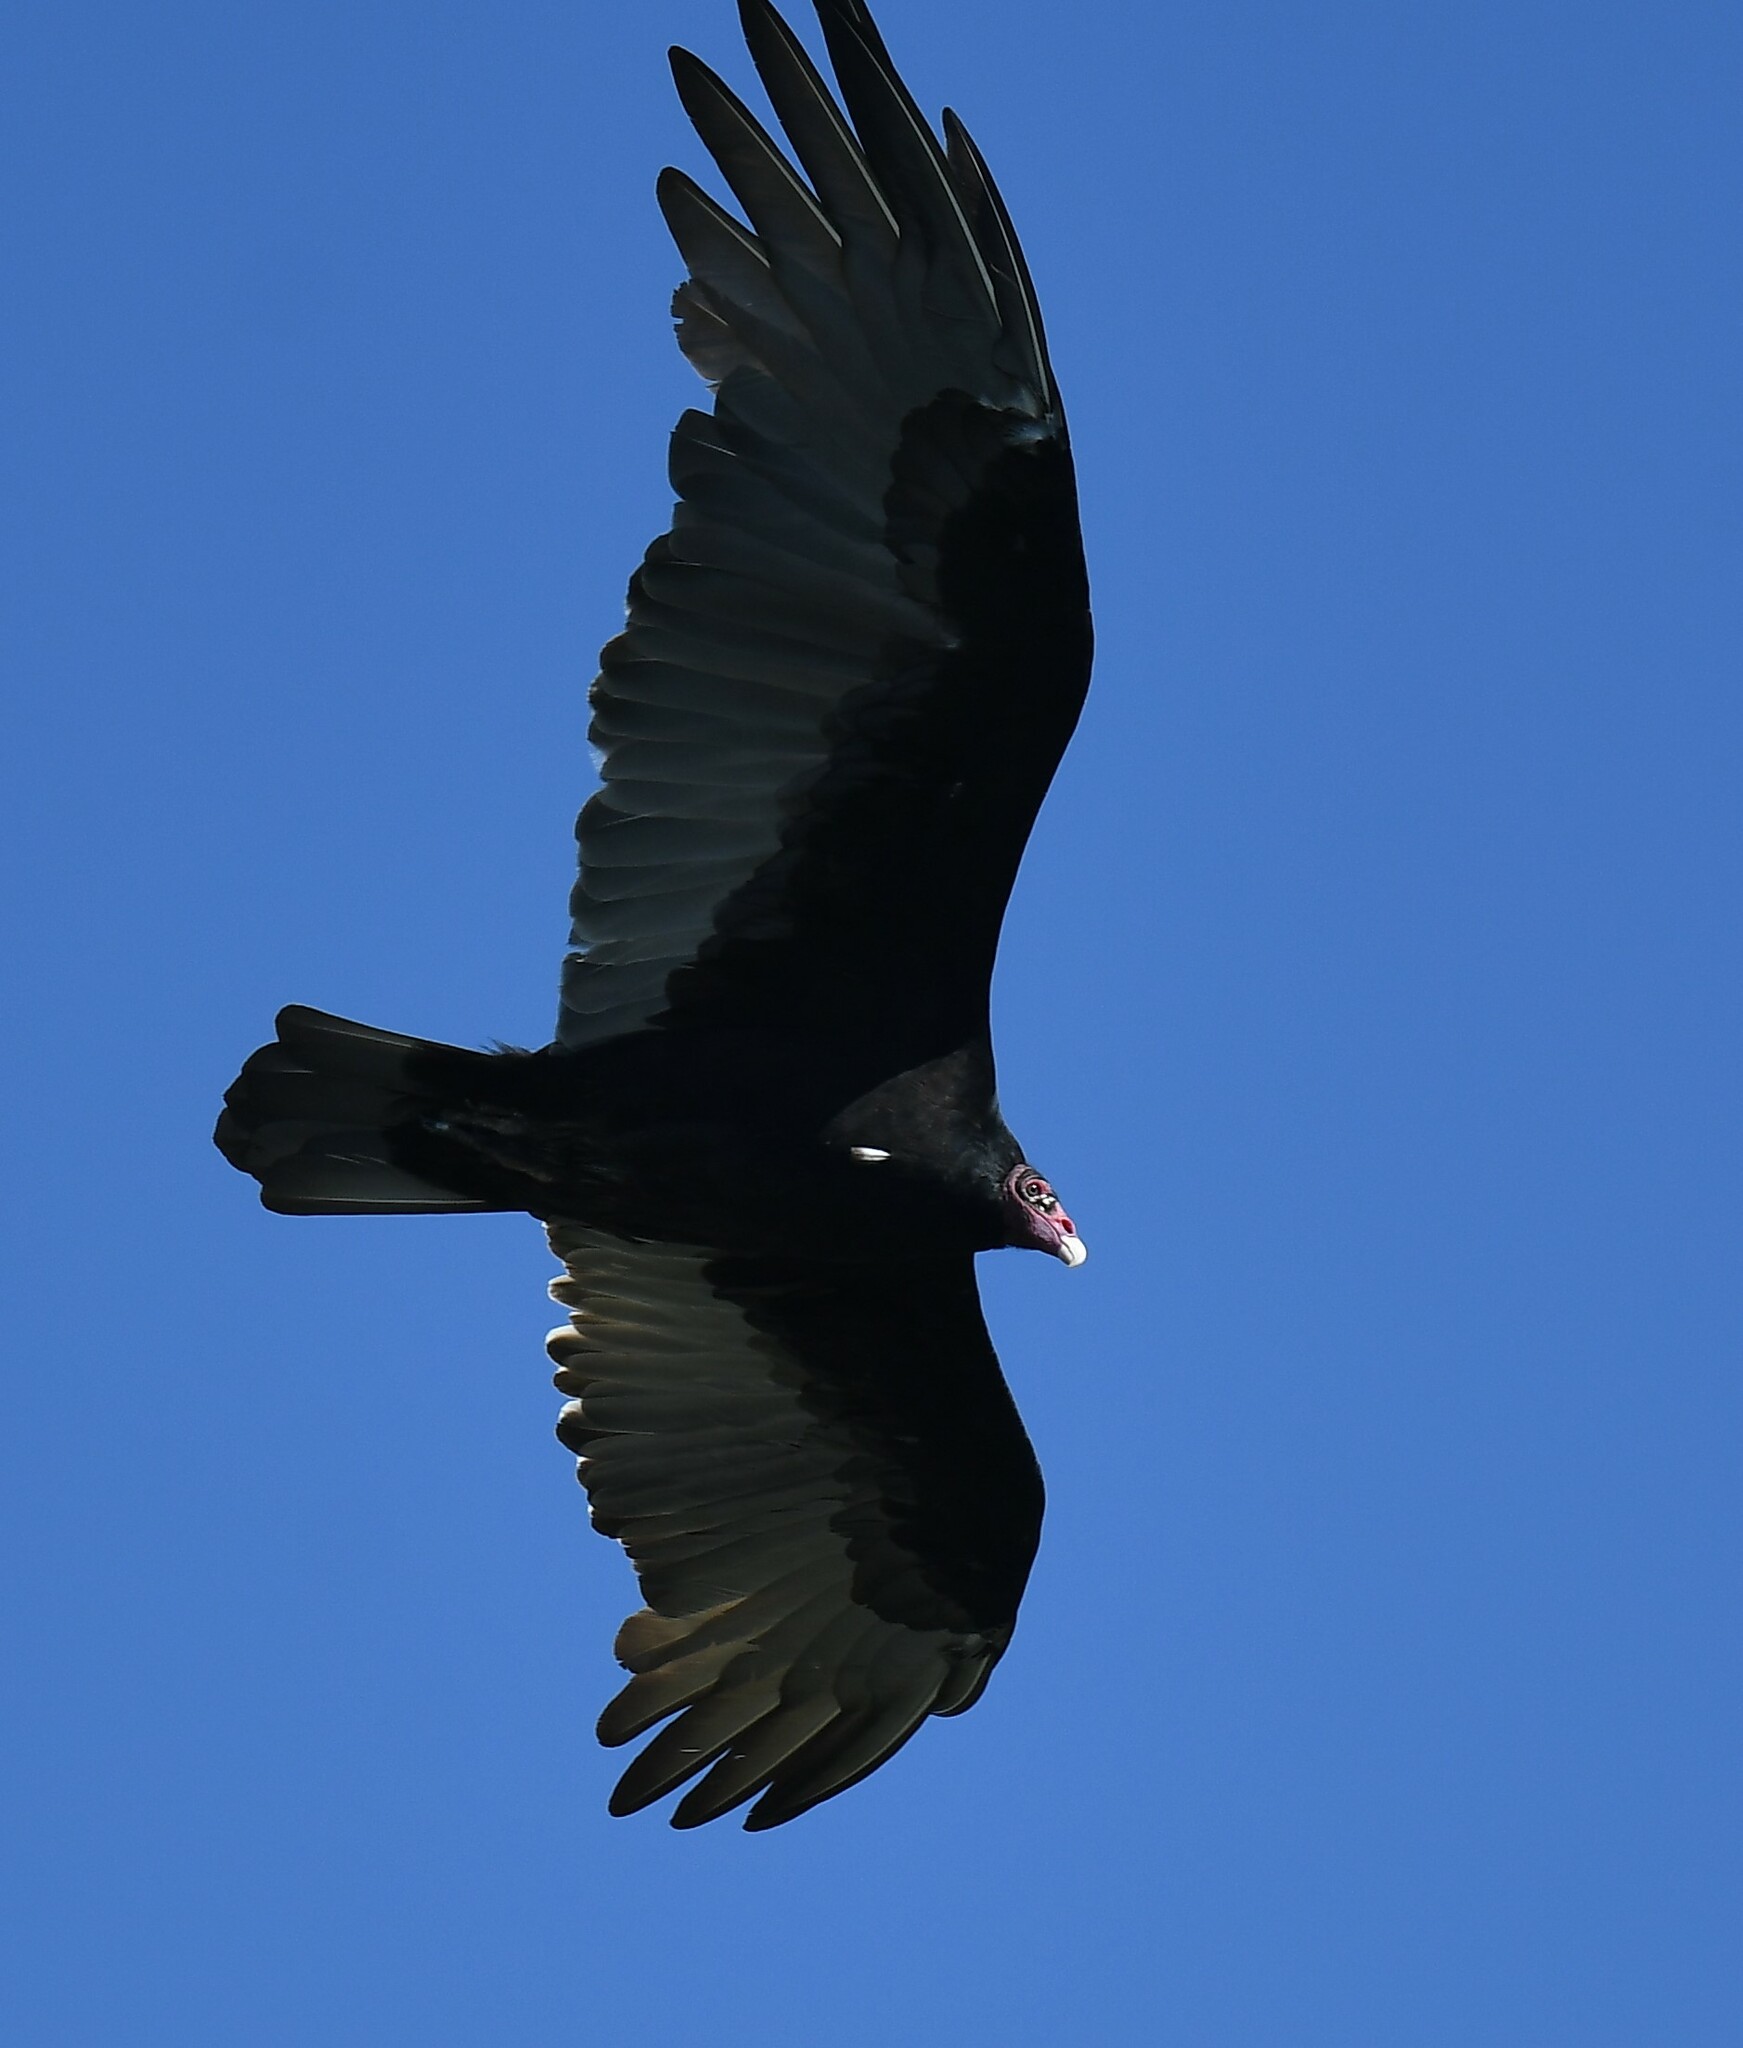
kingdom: Animalia
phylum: Chordata
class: Aves
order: Accipitriformes
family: Cathartidae
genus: Cathartes
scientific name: Cathartes aura
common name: Turkey vulture
